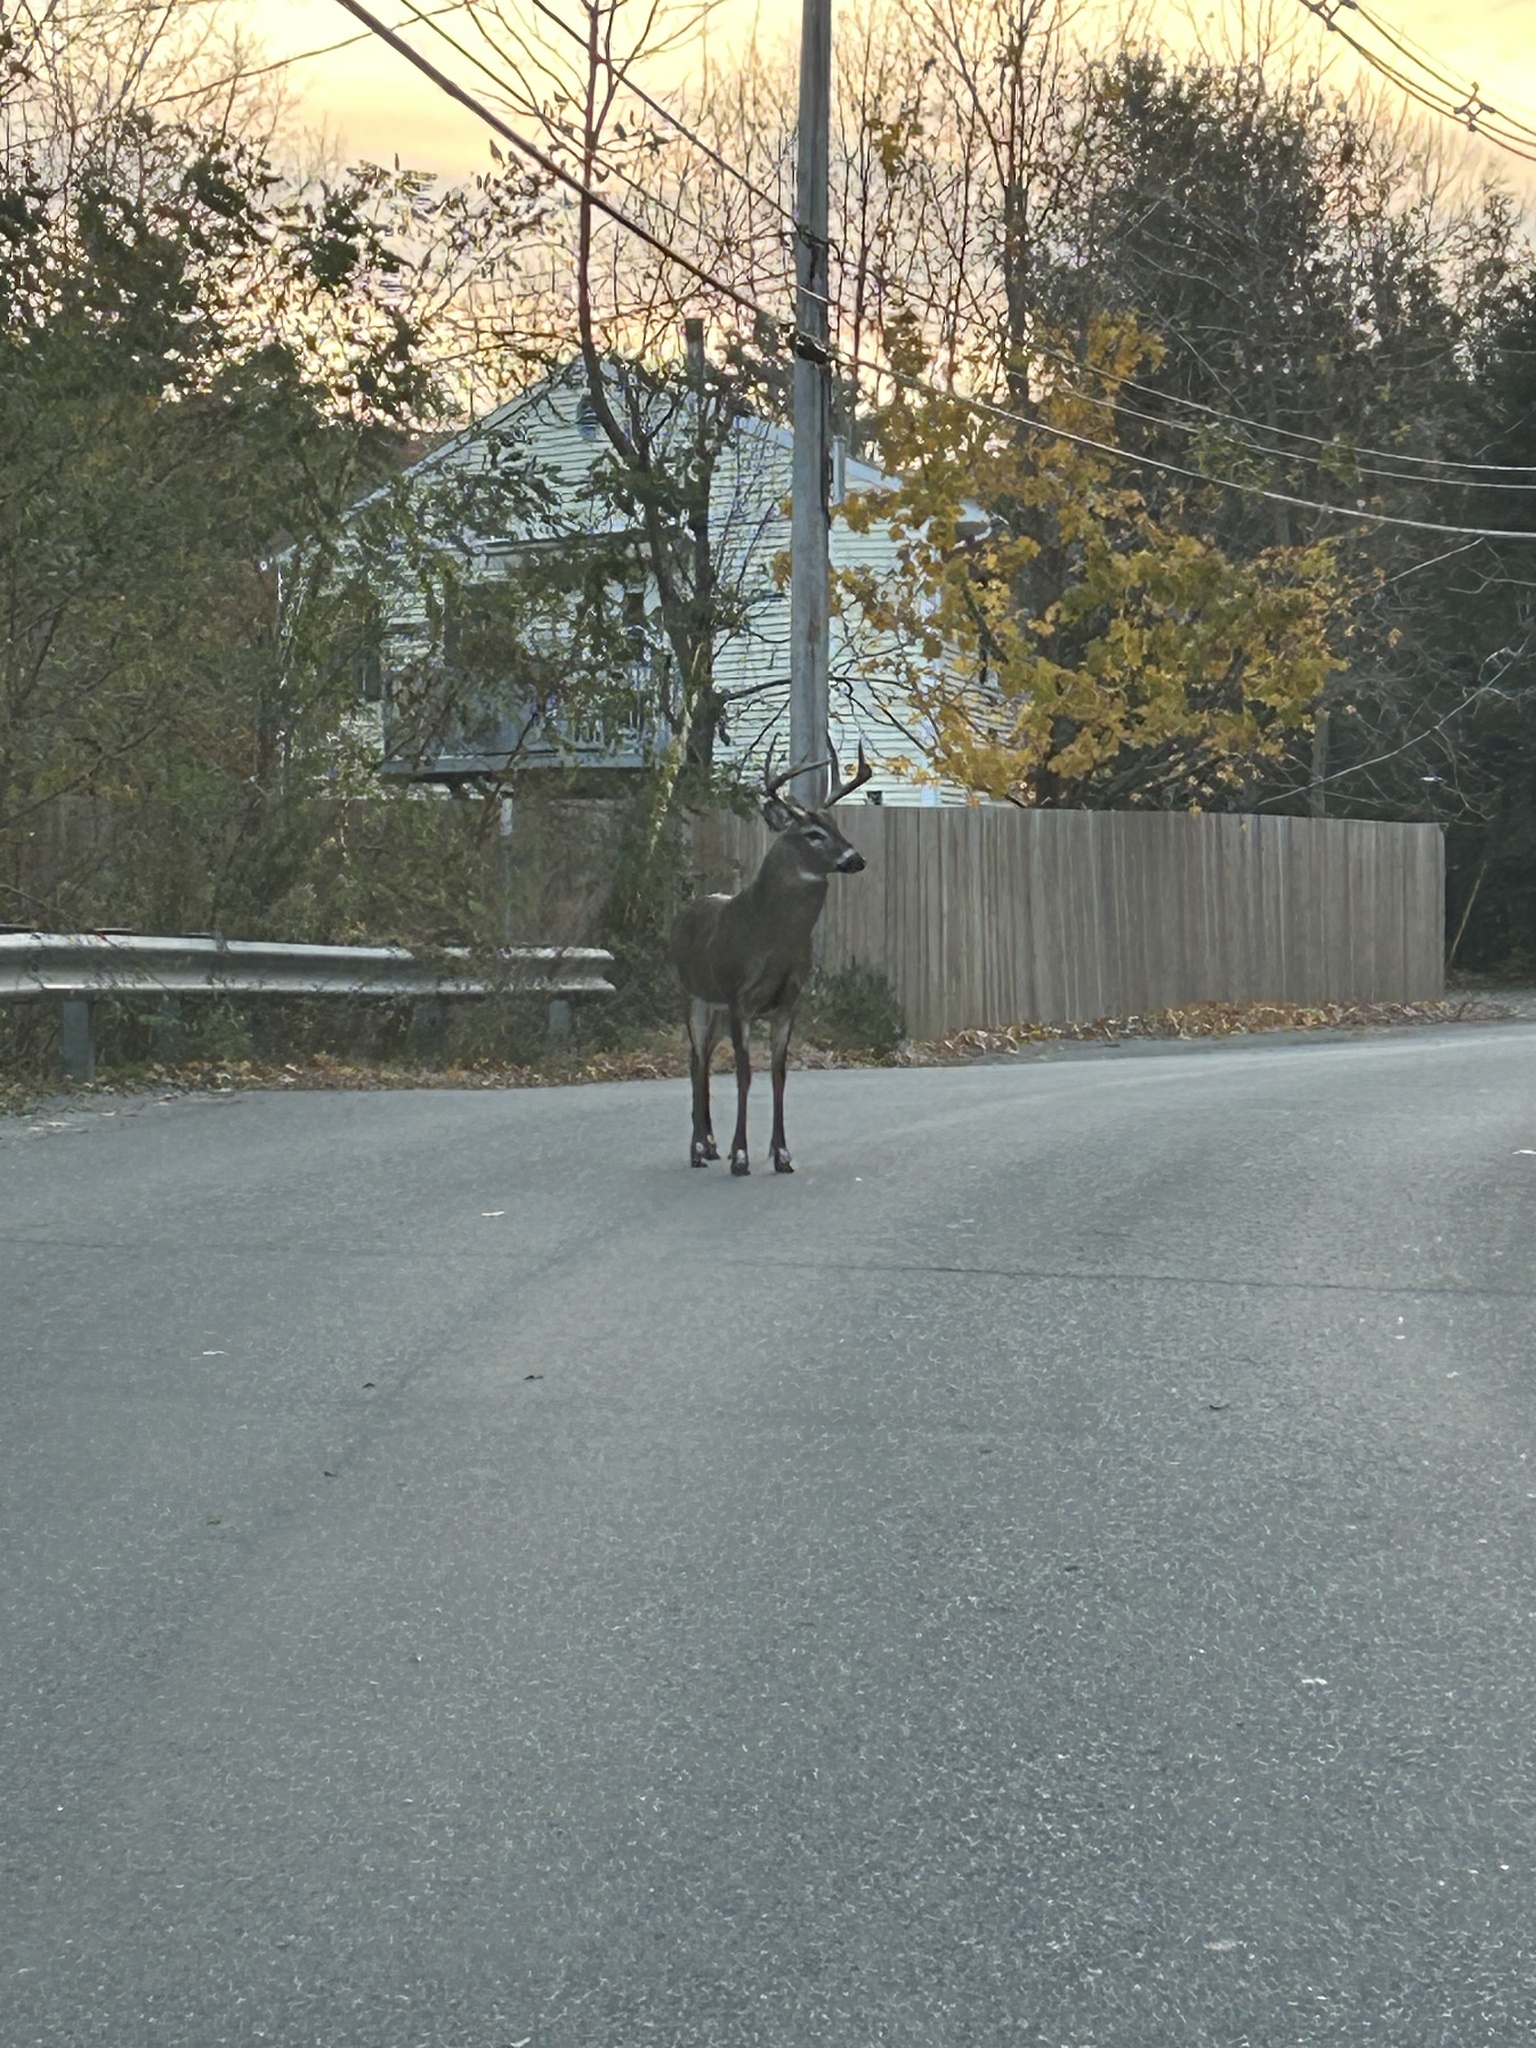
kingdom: Animalia
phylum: Chordata
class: Mammalia
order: Artiodactyla
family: Cervidae
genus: Odocoileus
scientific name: Odocoileus virginianus
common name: White-tailed deer
